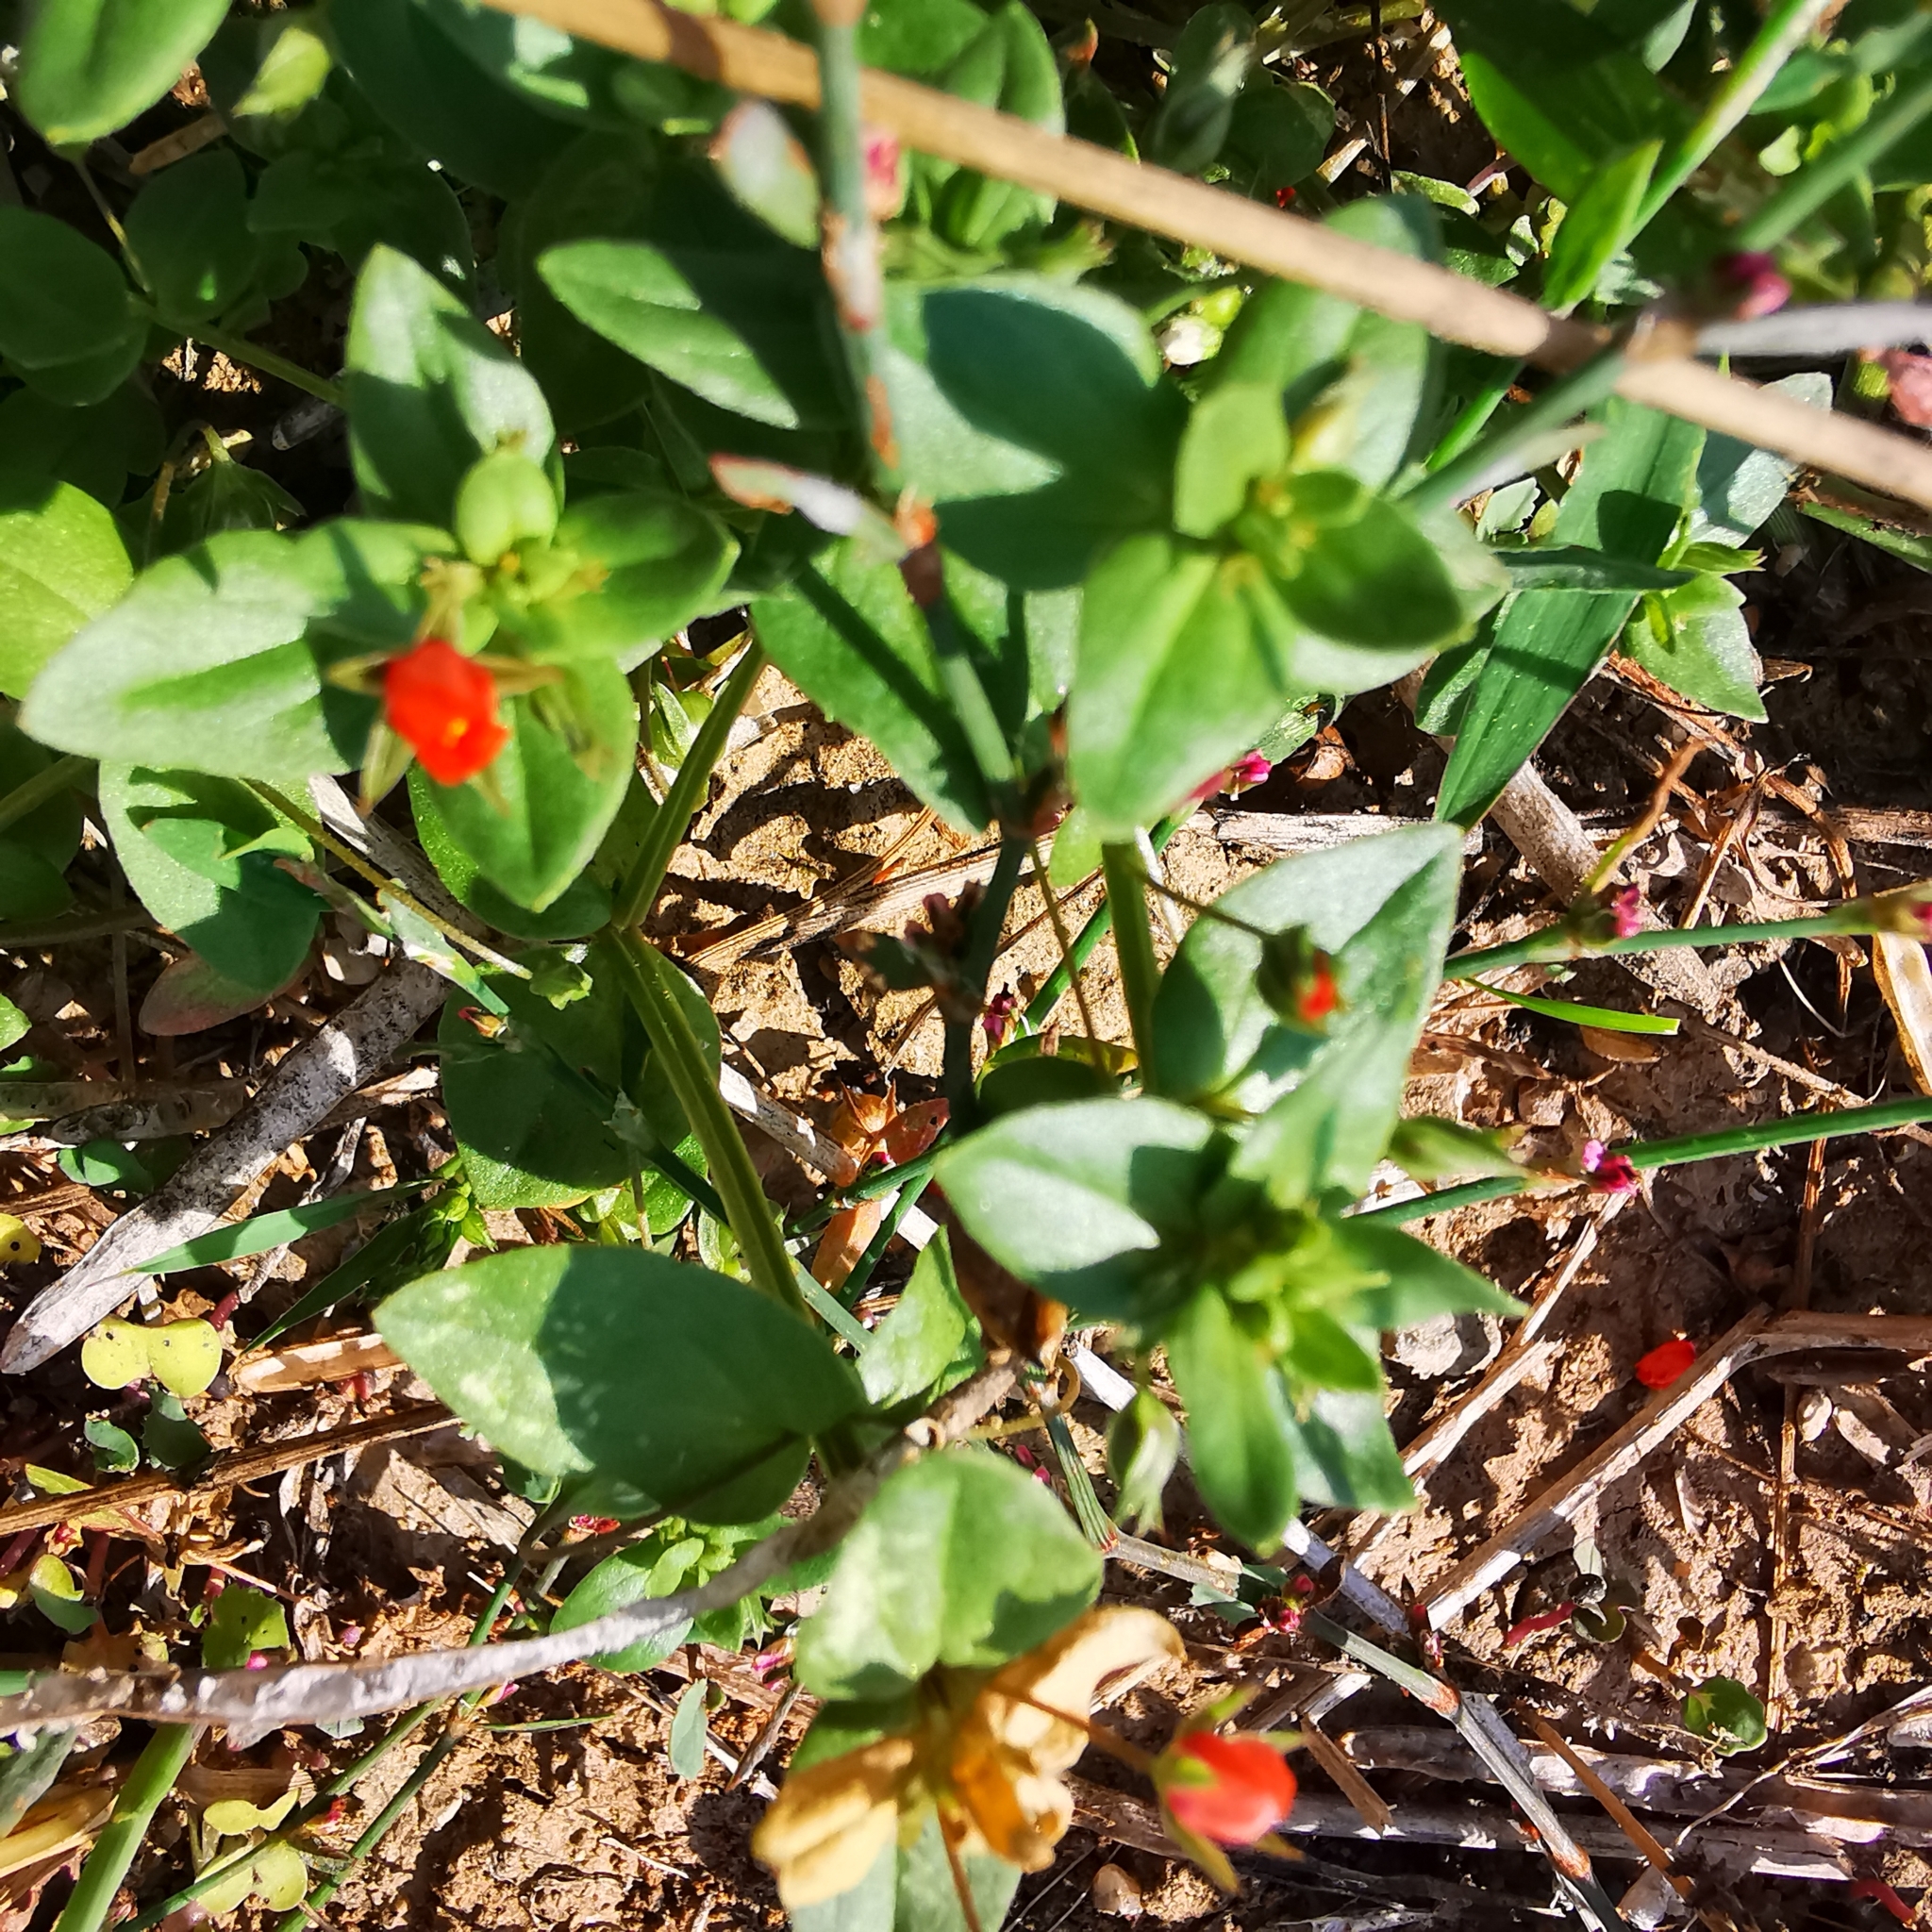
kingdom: Plantae
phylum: Tracheophyta
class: Magnoliopsida
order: Ericales
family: Primulaceae
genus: Lysimachia
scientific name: Lysimachia arvensis
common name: Scarlet pimpernel
